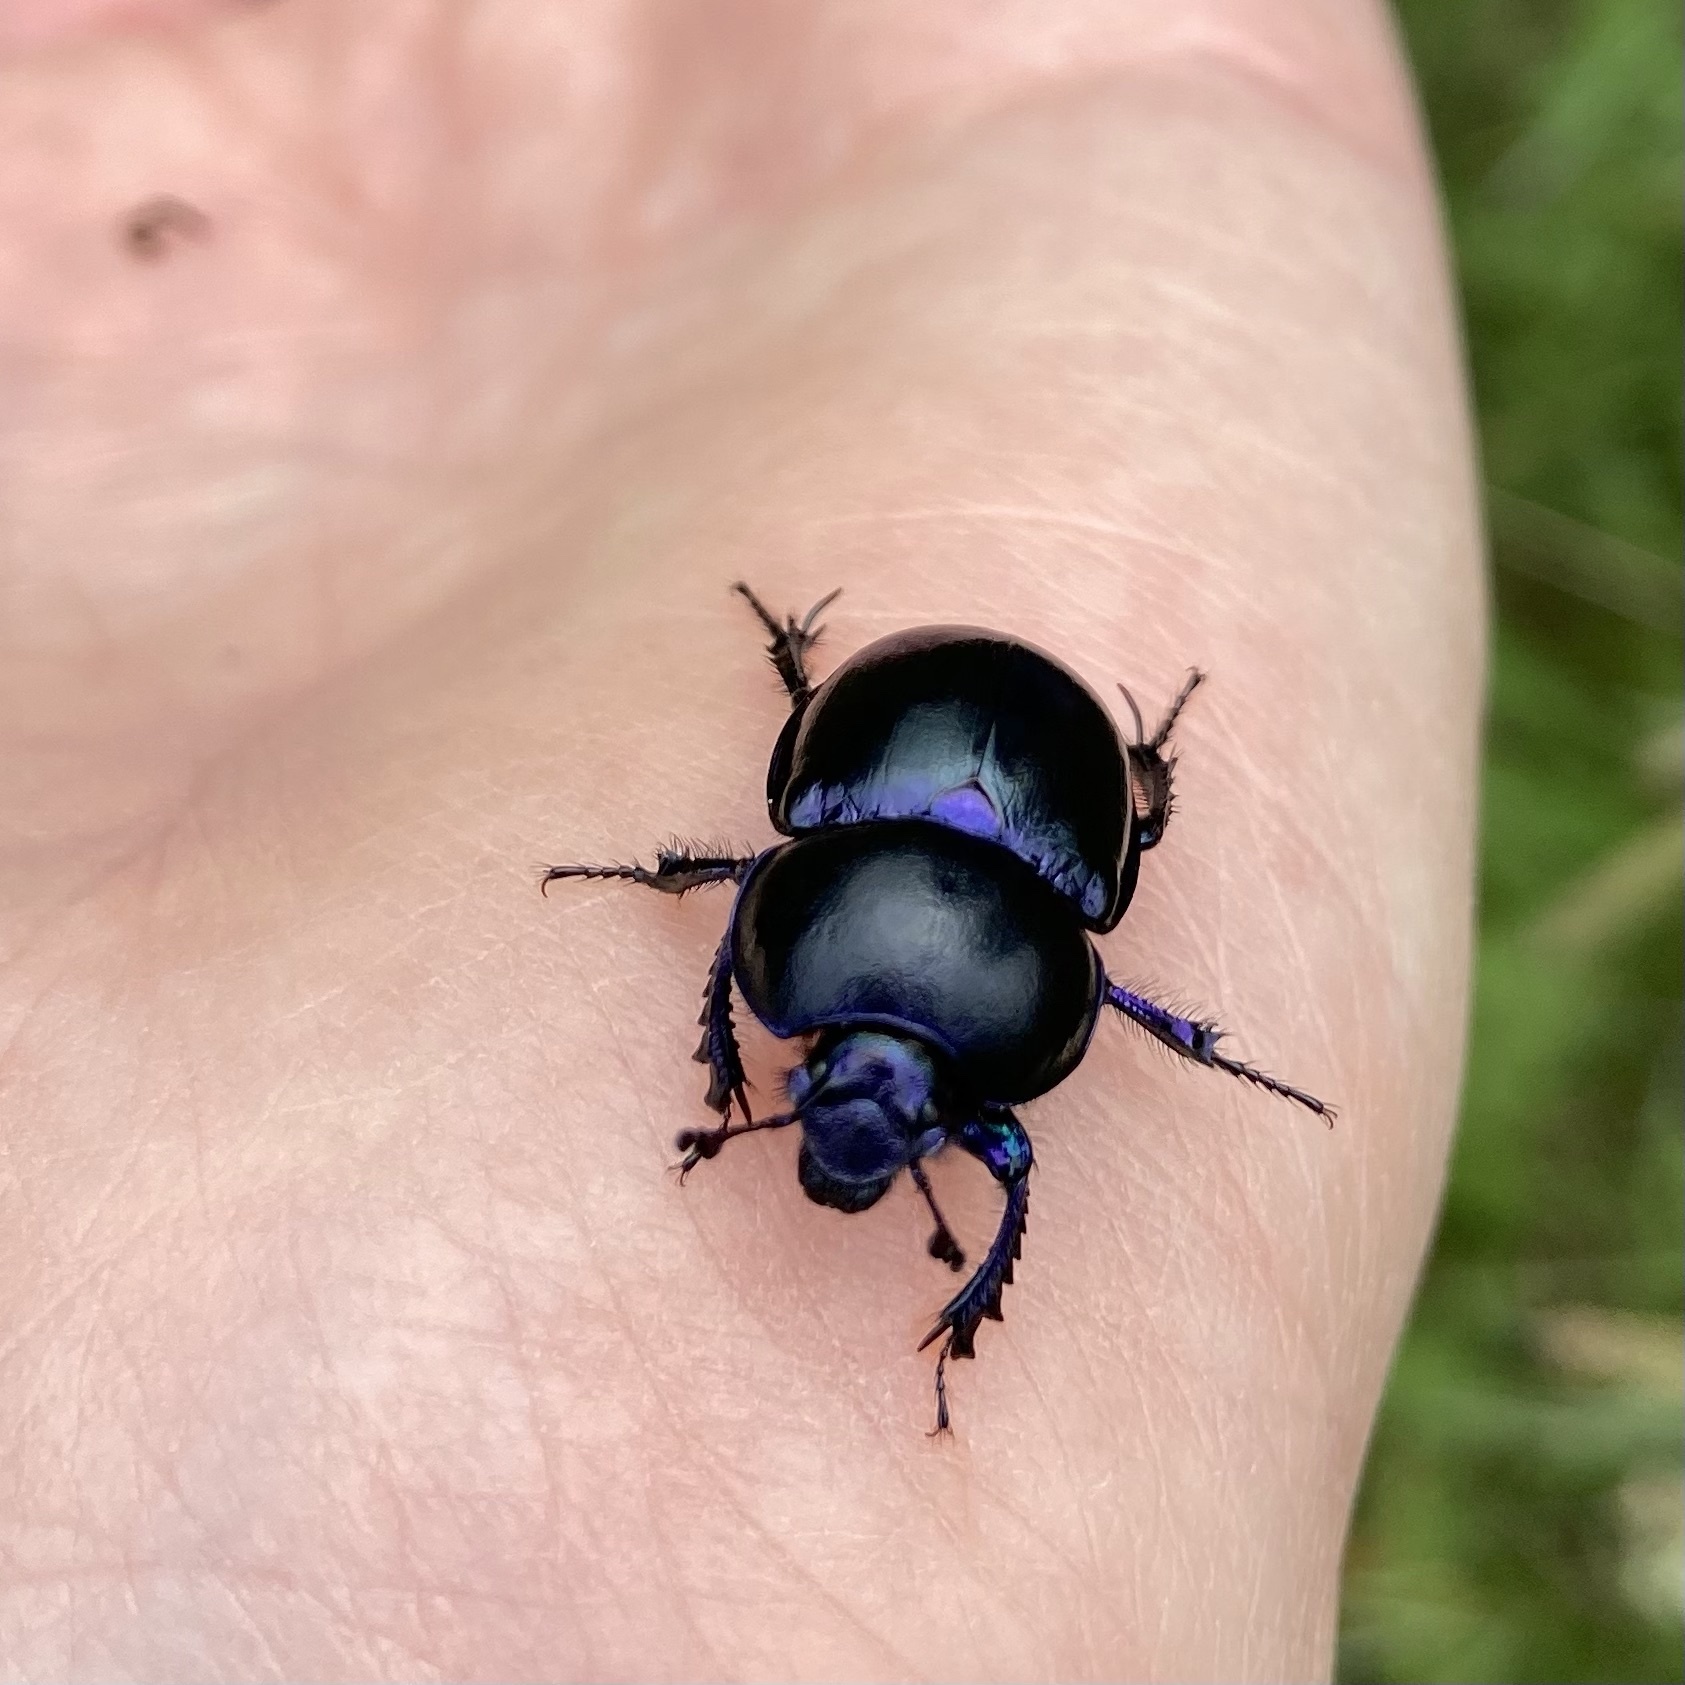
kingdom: Animalia
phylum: Arthropoda
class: Insecta
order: Coleoptera
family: Geotrupidae
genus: Trypocopris
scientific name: Trypocopris vernalis
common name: Spring dumbledor
